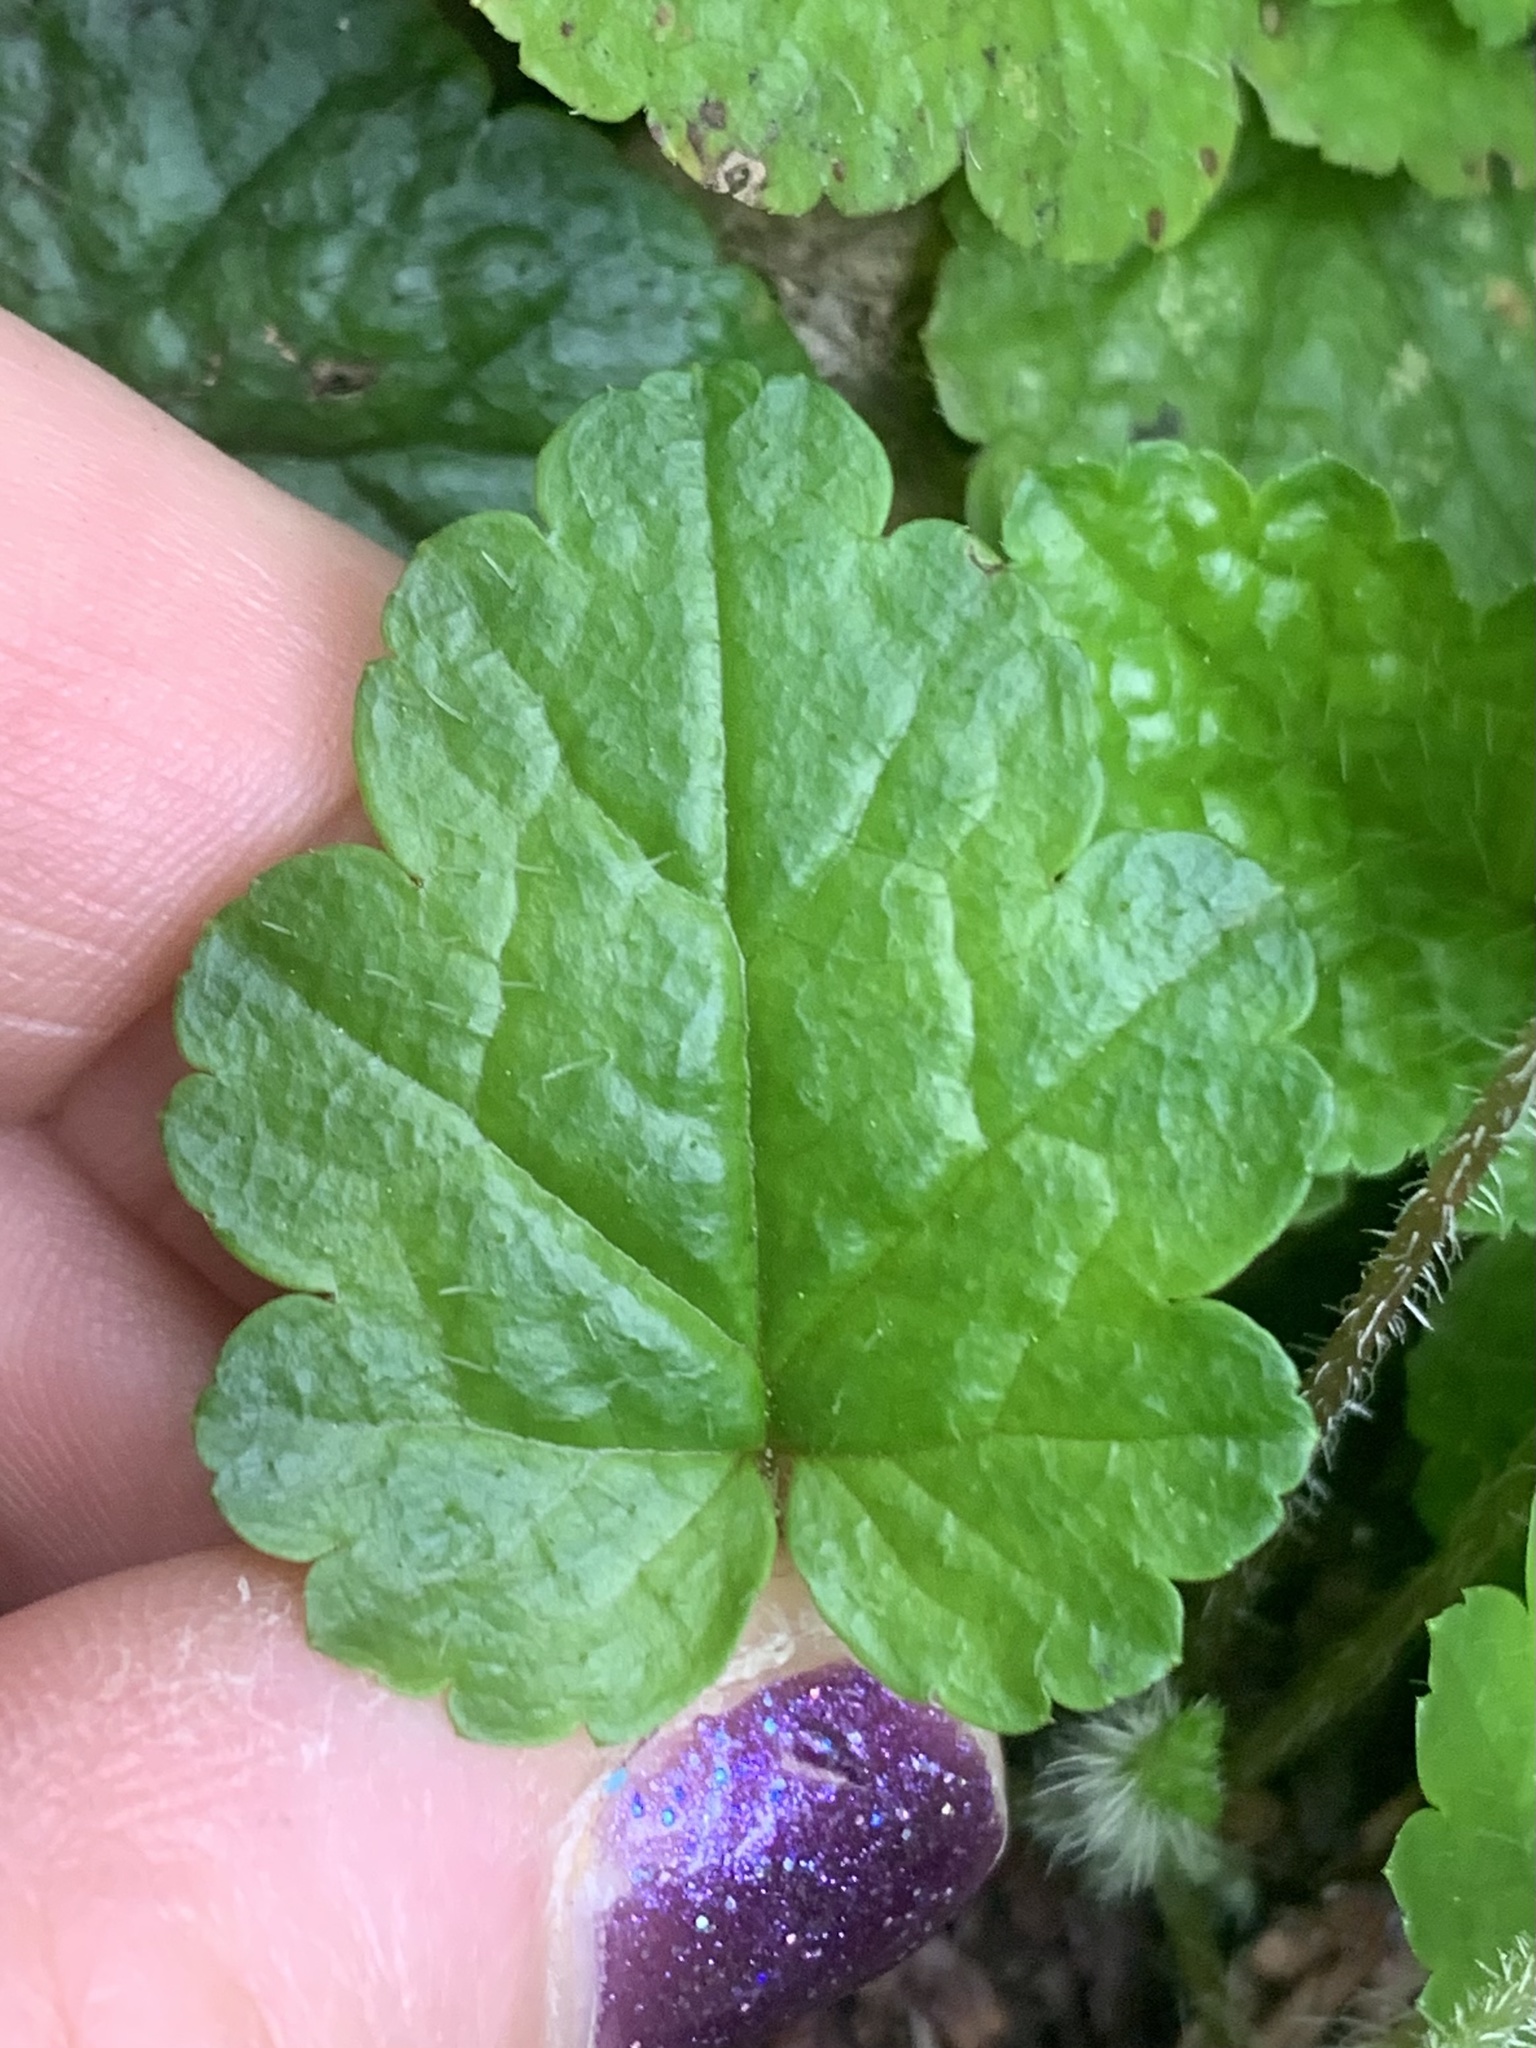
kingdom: Plantae
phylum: Tracheophyta
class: Magnoliopsida
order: Saxifragales
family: Saxifragaceae
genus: Brewerimitella
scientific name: Brewerimitella ovalis
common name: Coastal bishop's-cap
